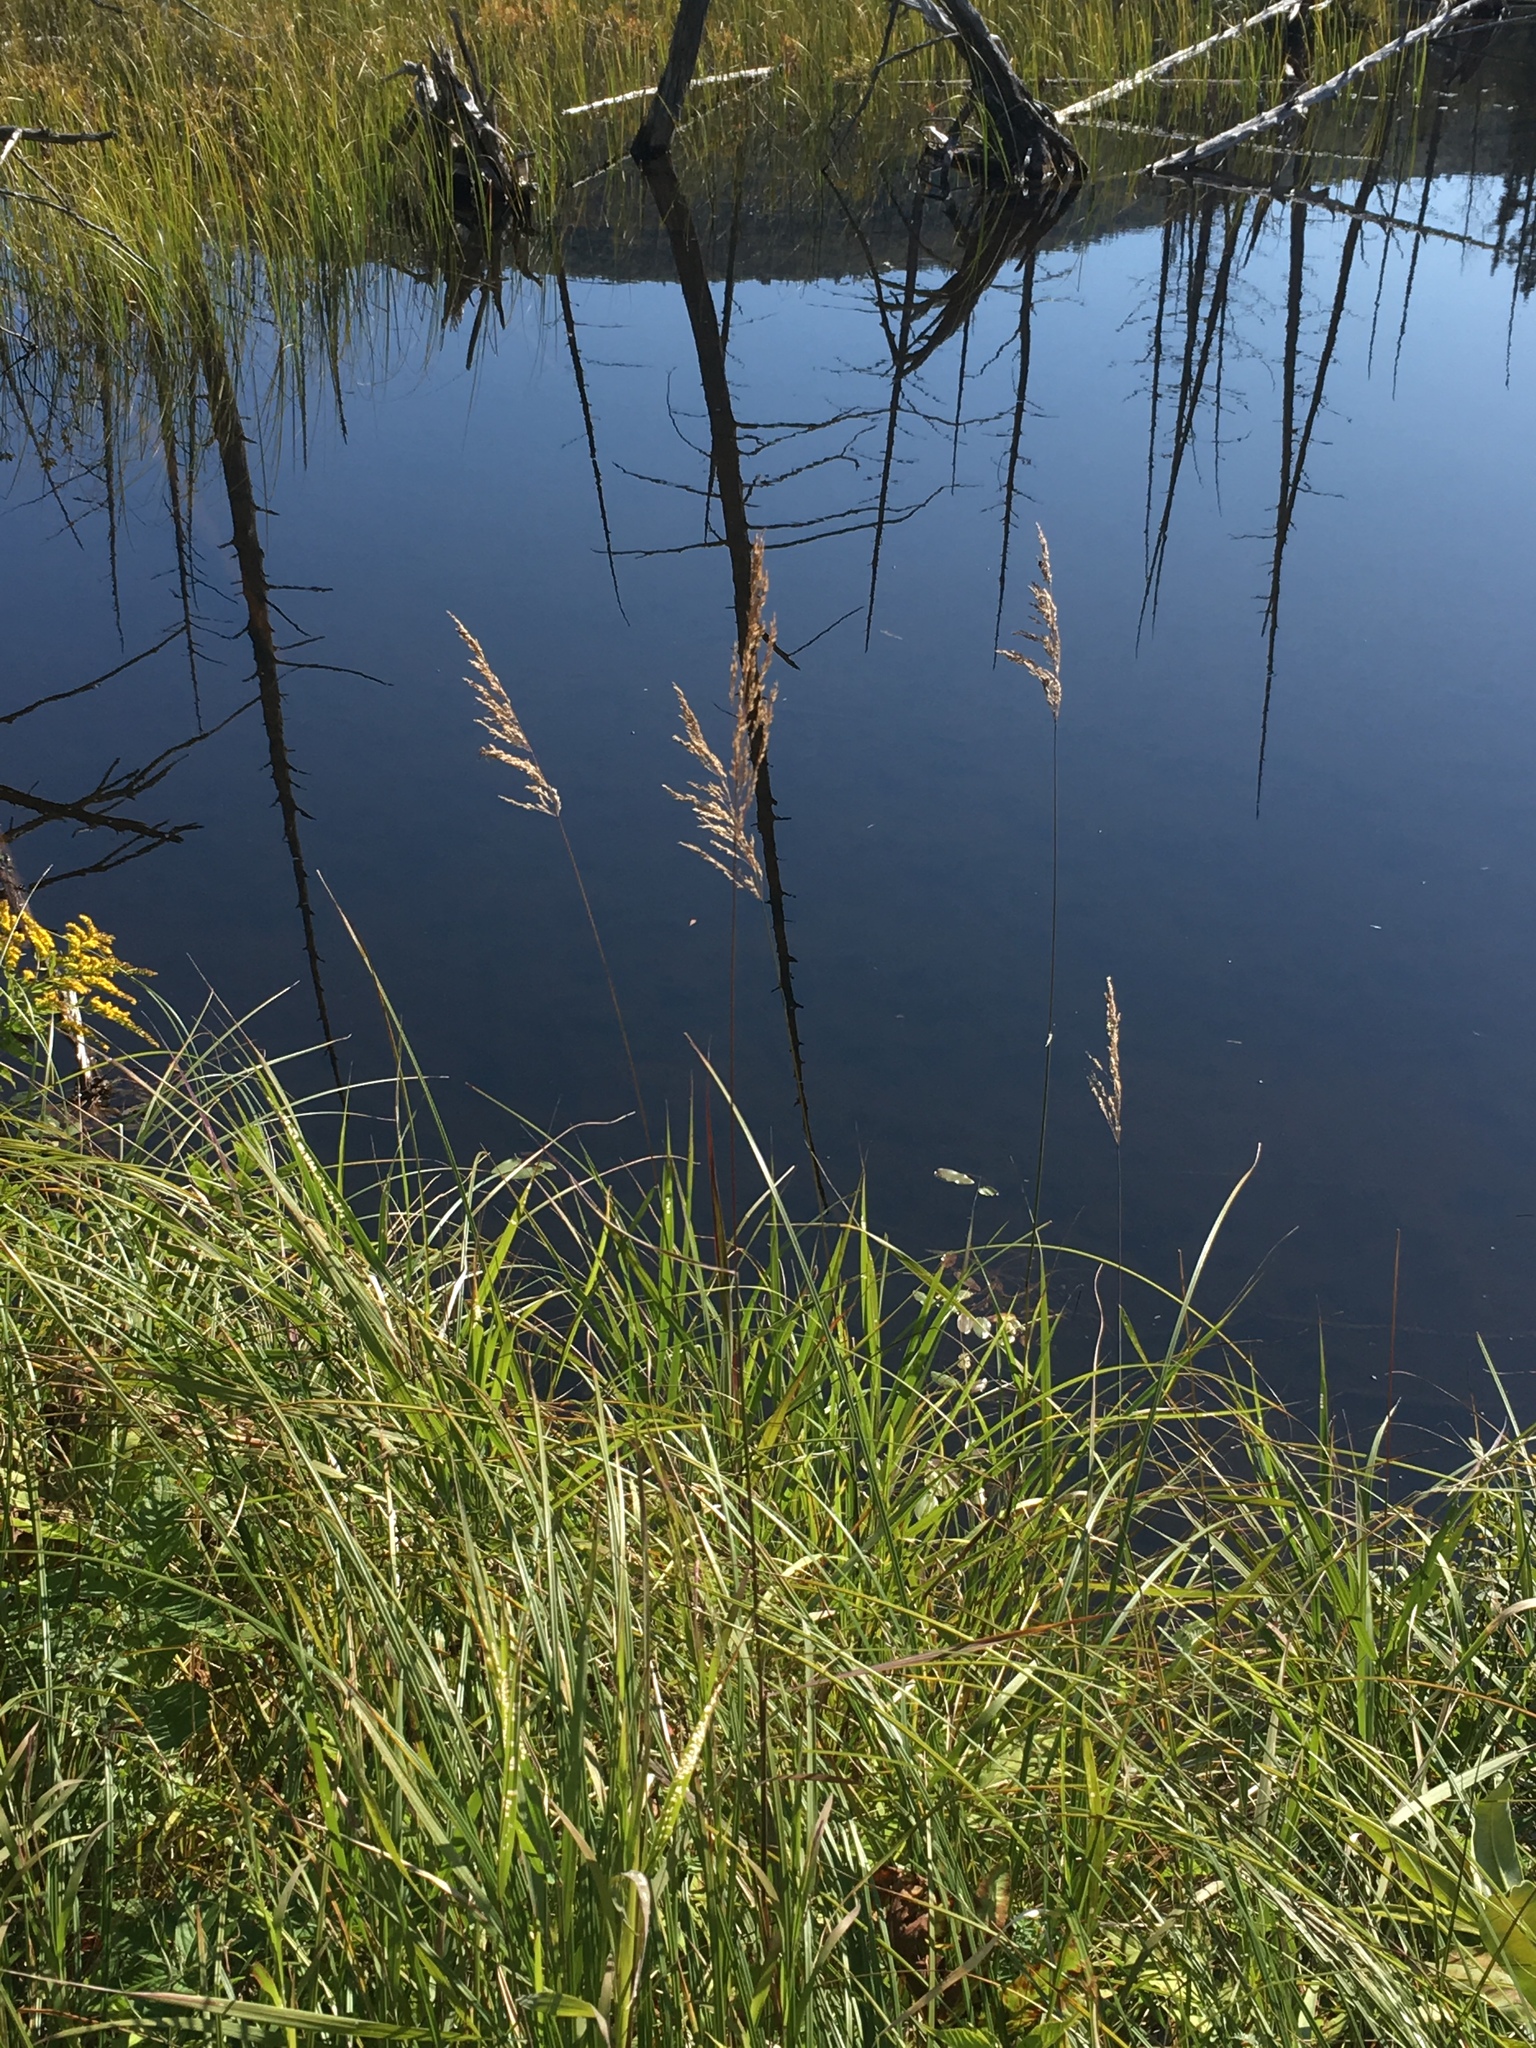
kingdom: Plantae
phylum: Tracheophyta
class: Liliopsida
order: Poales
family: Poaceae
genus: Calamagrostis
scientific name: Calamagrostis canadensis
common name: Canada bluejoint
